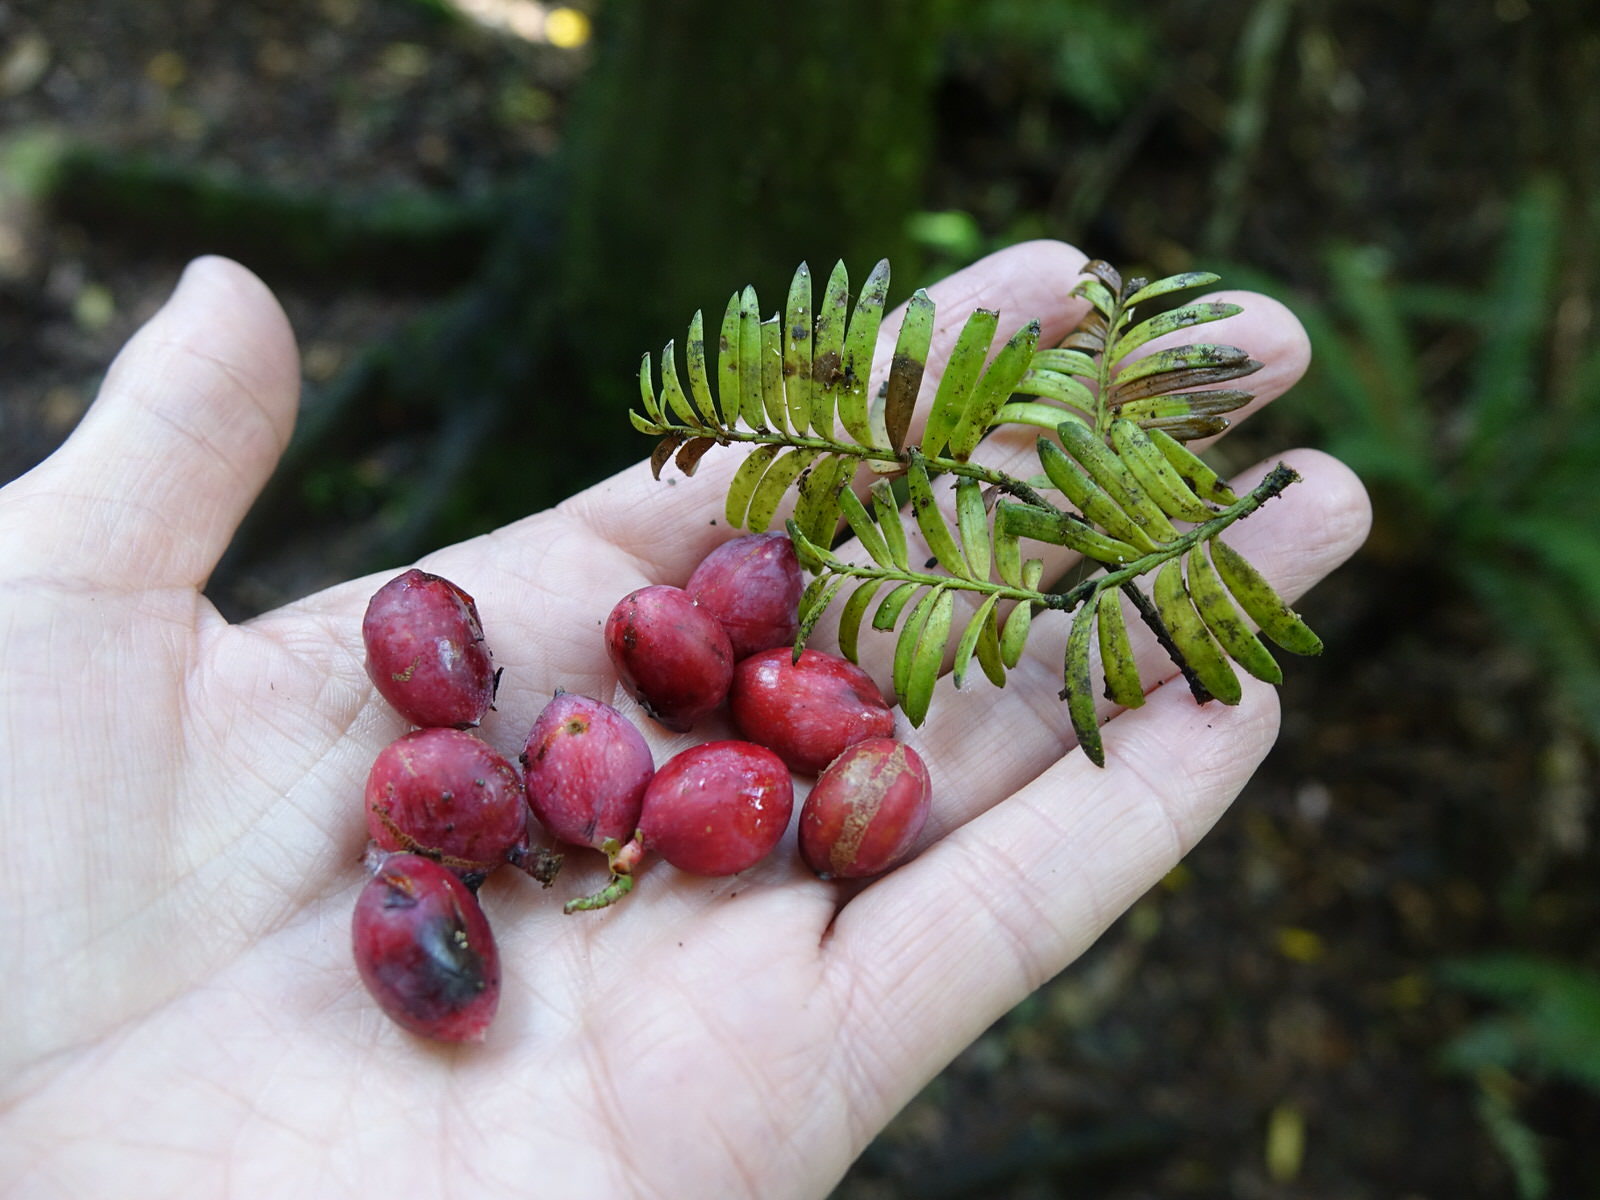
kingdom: Plantae
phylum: Tracheophyta
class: Pinopsida
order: Pinales
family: Podocarpaceae
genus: Prumnopitys
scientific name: Prumnopitys ferruginea
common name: Brown pine
